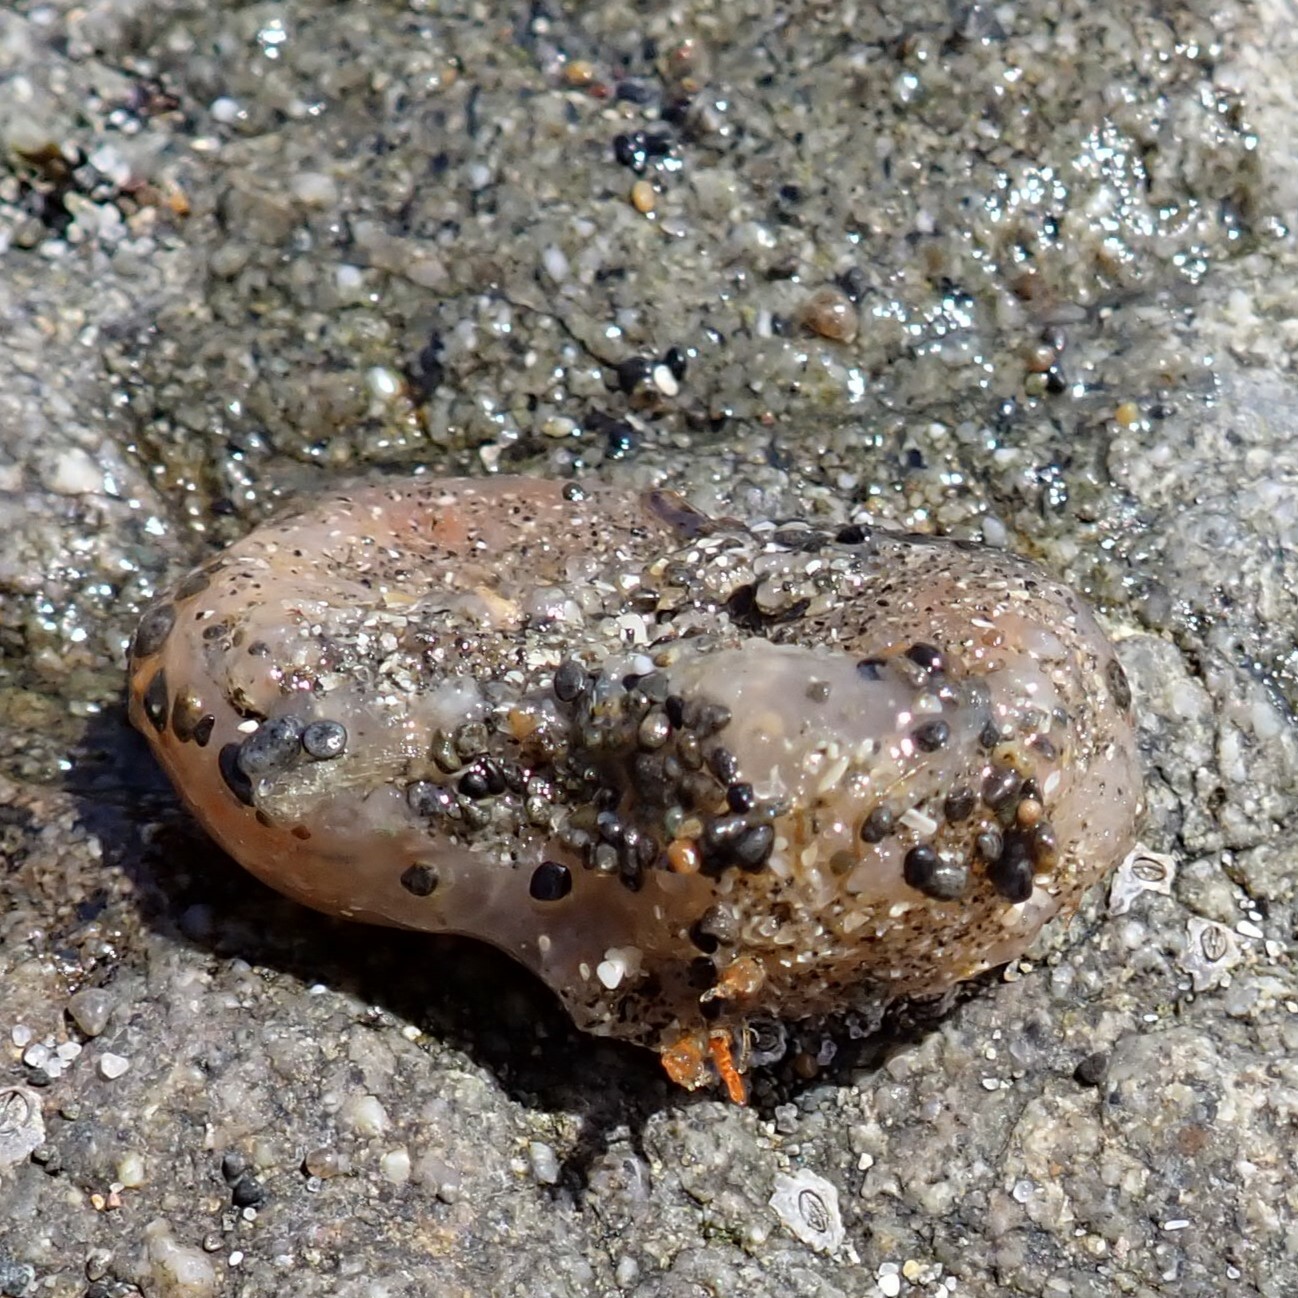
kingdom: Animalia
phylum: Chordata
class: Ascidiacea
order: Aplousobranchia
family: Polyclinidae
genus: Aplidium
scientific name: Aplidium californicum
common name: Sea pork
